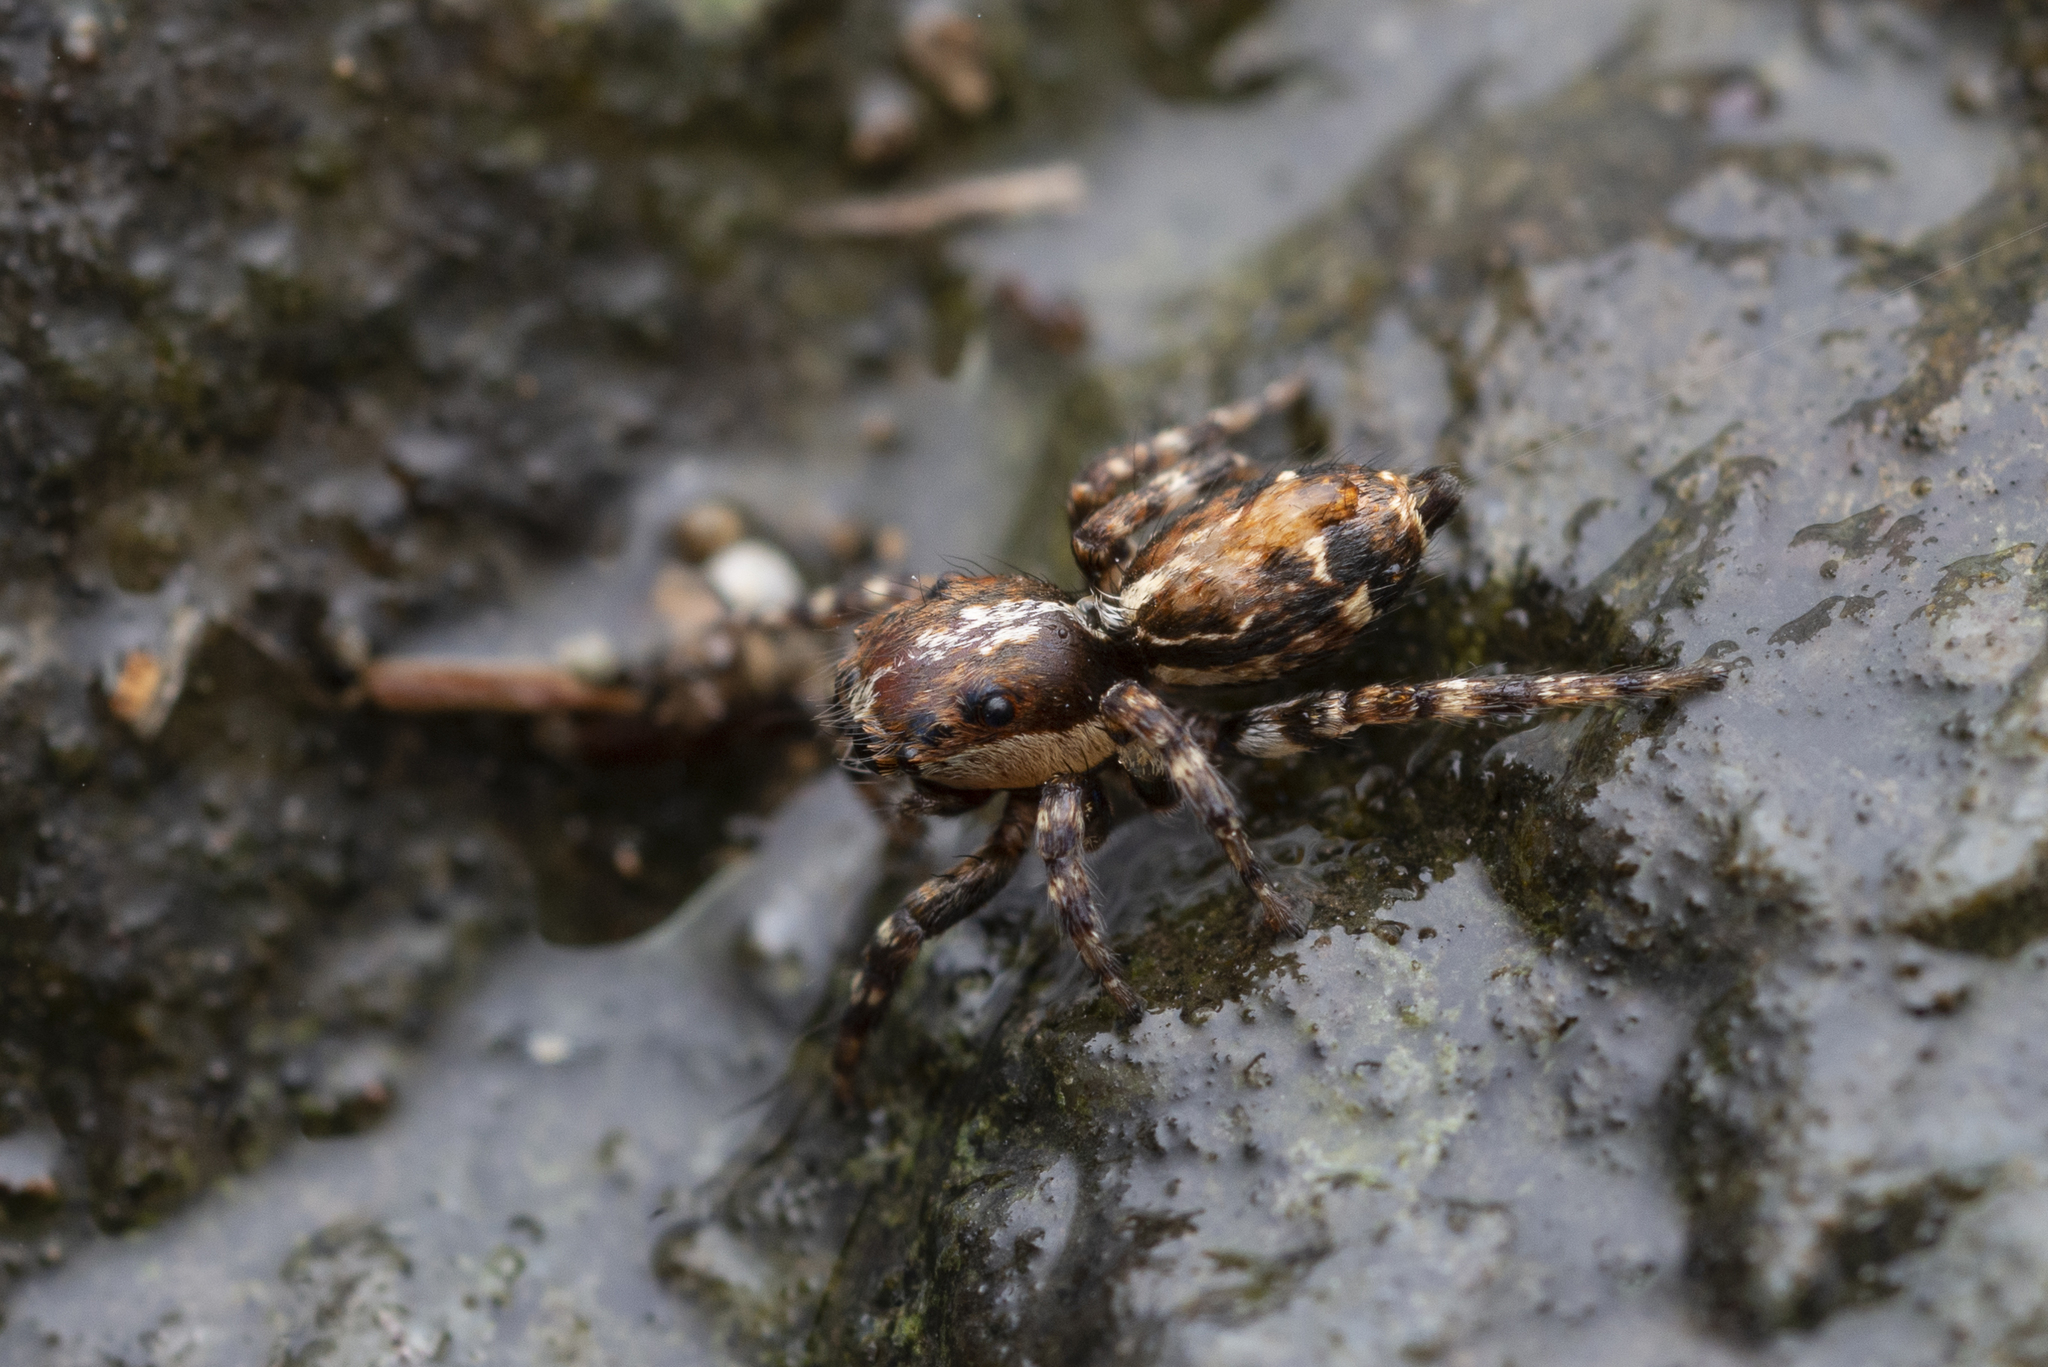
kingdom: Animalia
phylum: Arthropoda
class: Arachnida
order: Araneae
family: Salticidae
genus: Thyene
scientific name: Thyene orientalis
